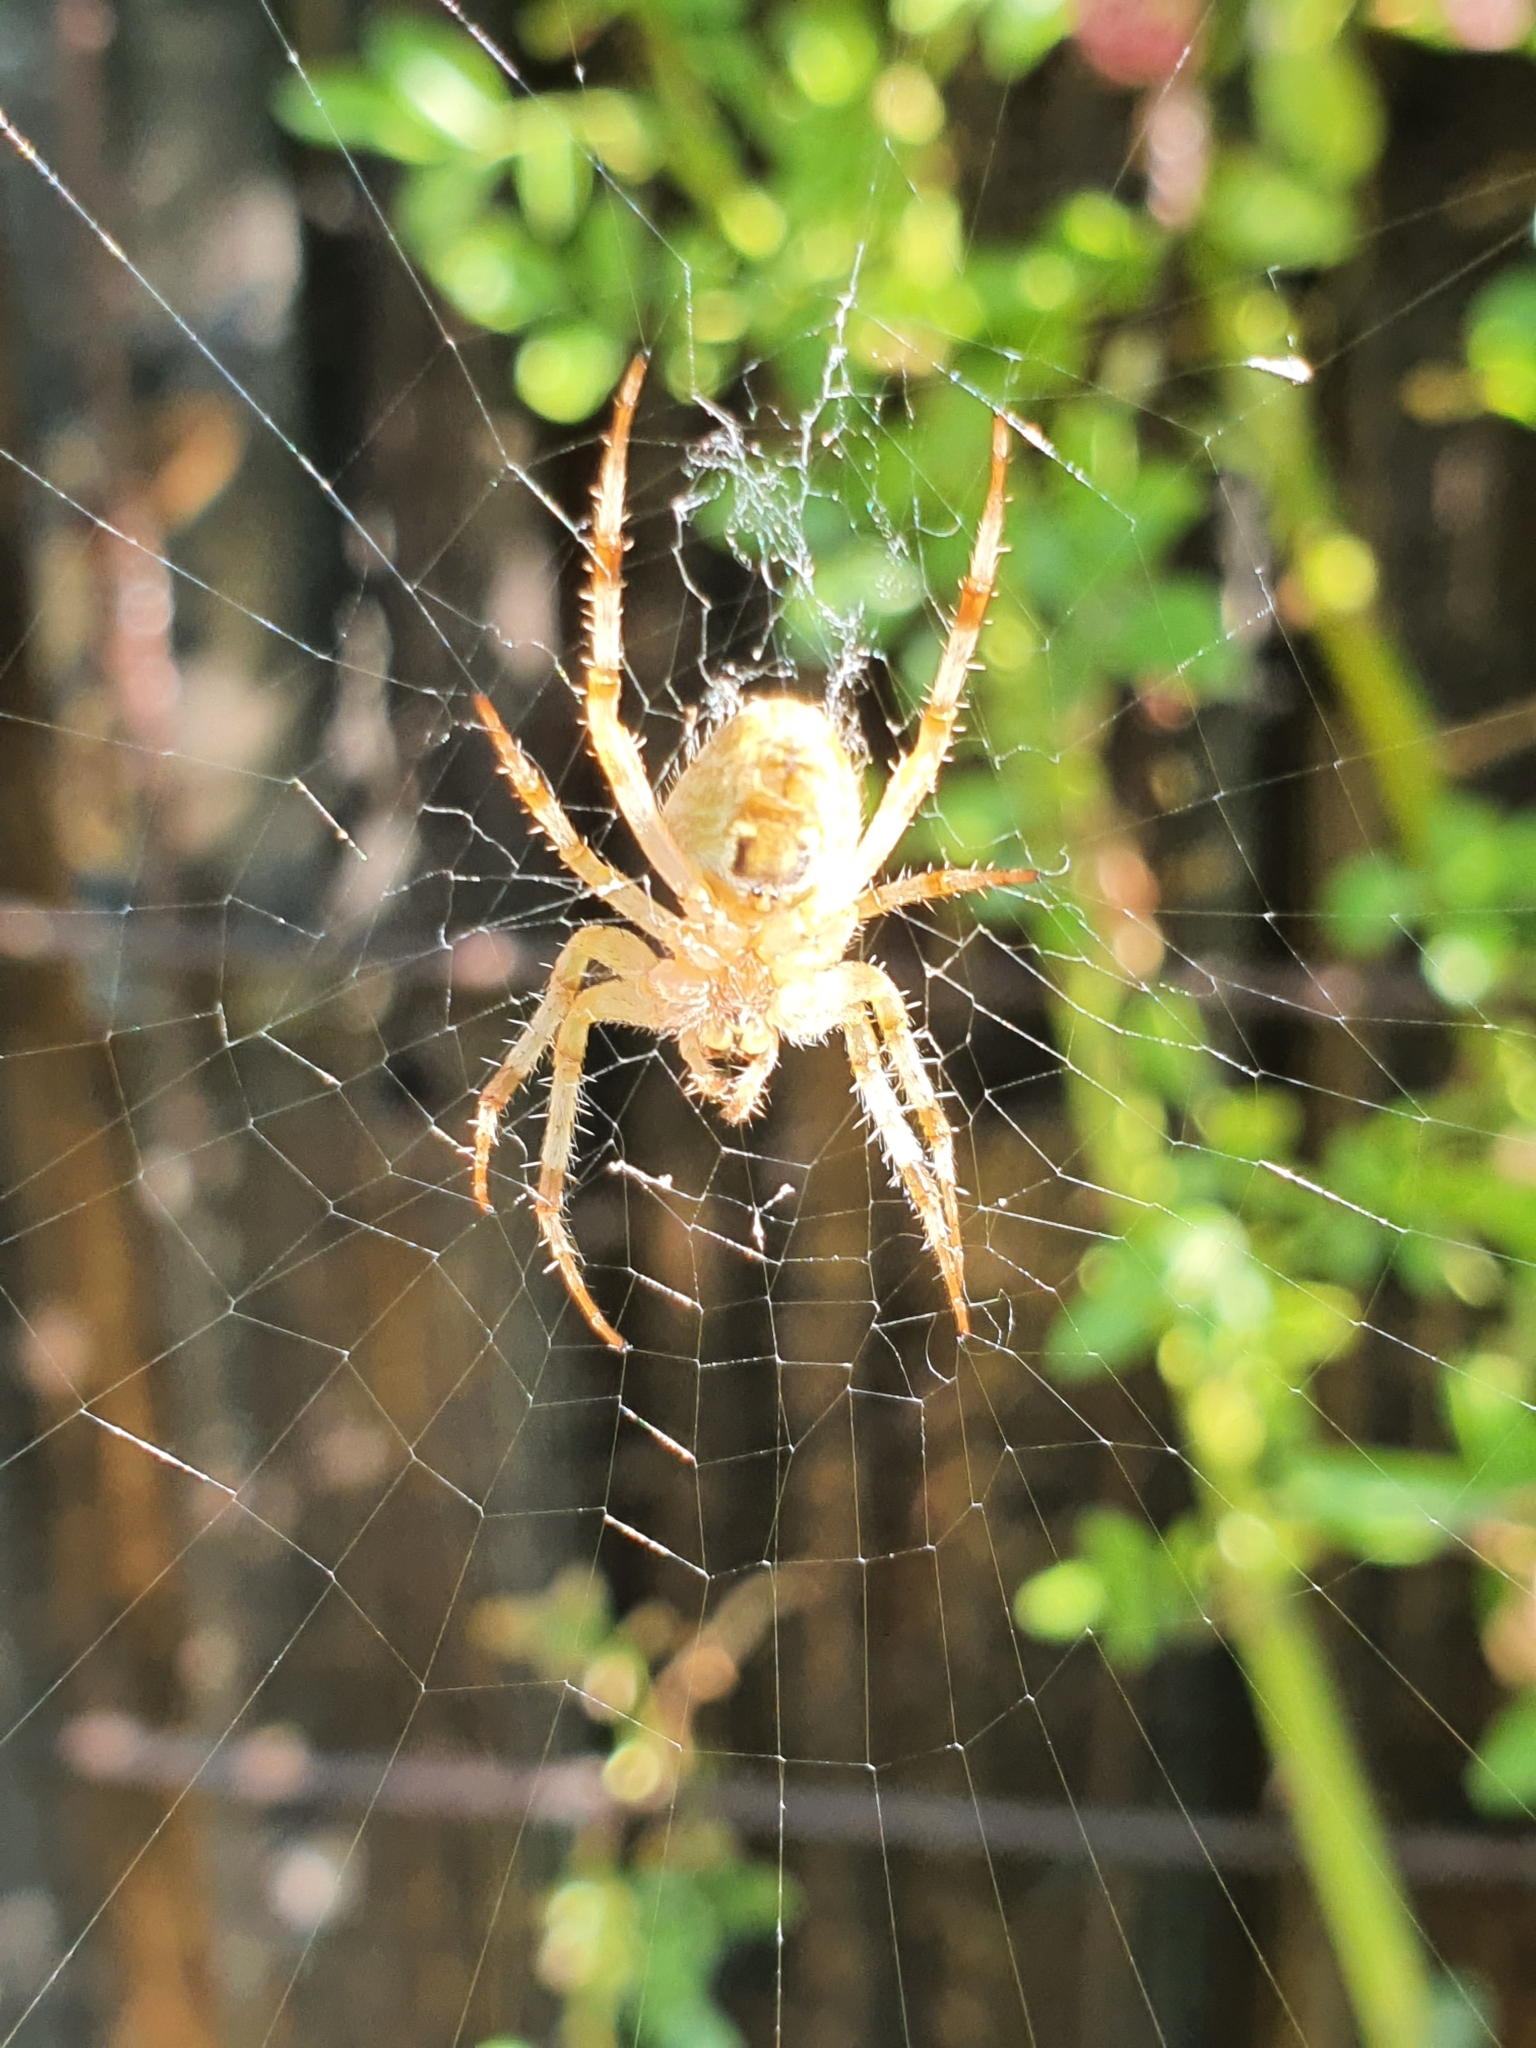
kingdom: Animalia
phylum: Arthropoda
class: Arachnida
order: Araneae
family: Araneidae
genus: Araneus
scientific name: Araneus diadematus
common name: Cross orbweaver
